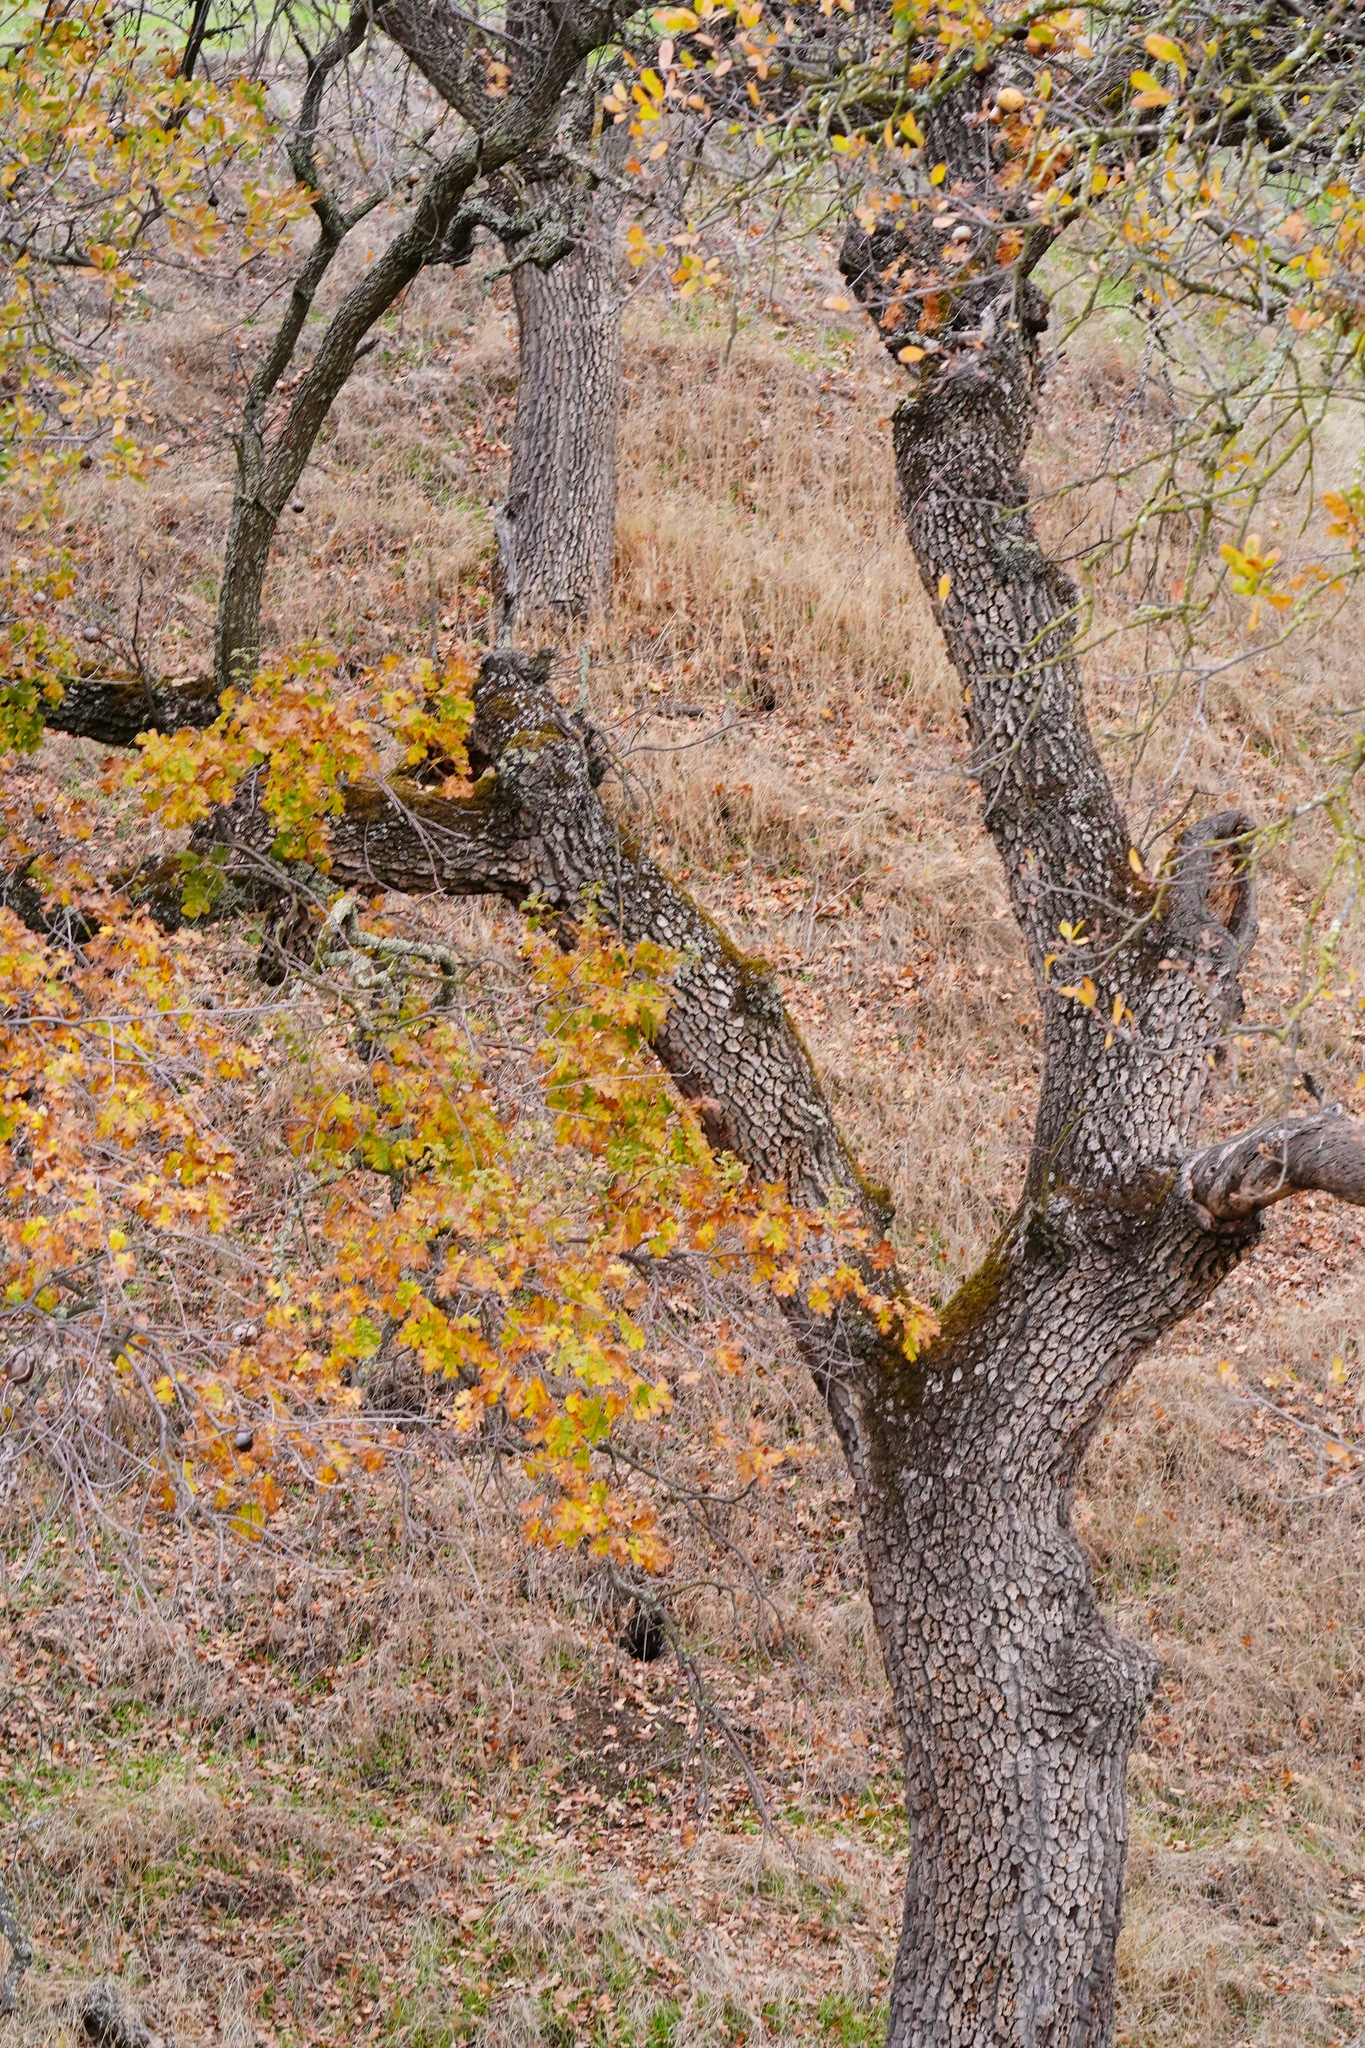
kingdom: Plantae
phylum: Tracheophyta
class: Magnoliopsida
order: Fagales
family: Fagaceae
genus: Quercus
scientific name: Quercus garryana
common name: Garry oak
